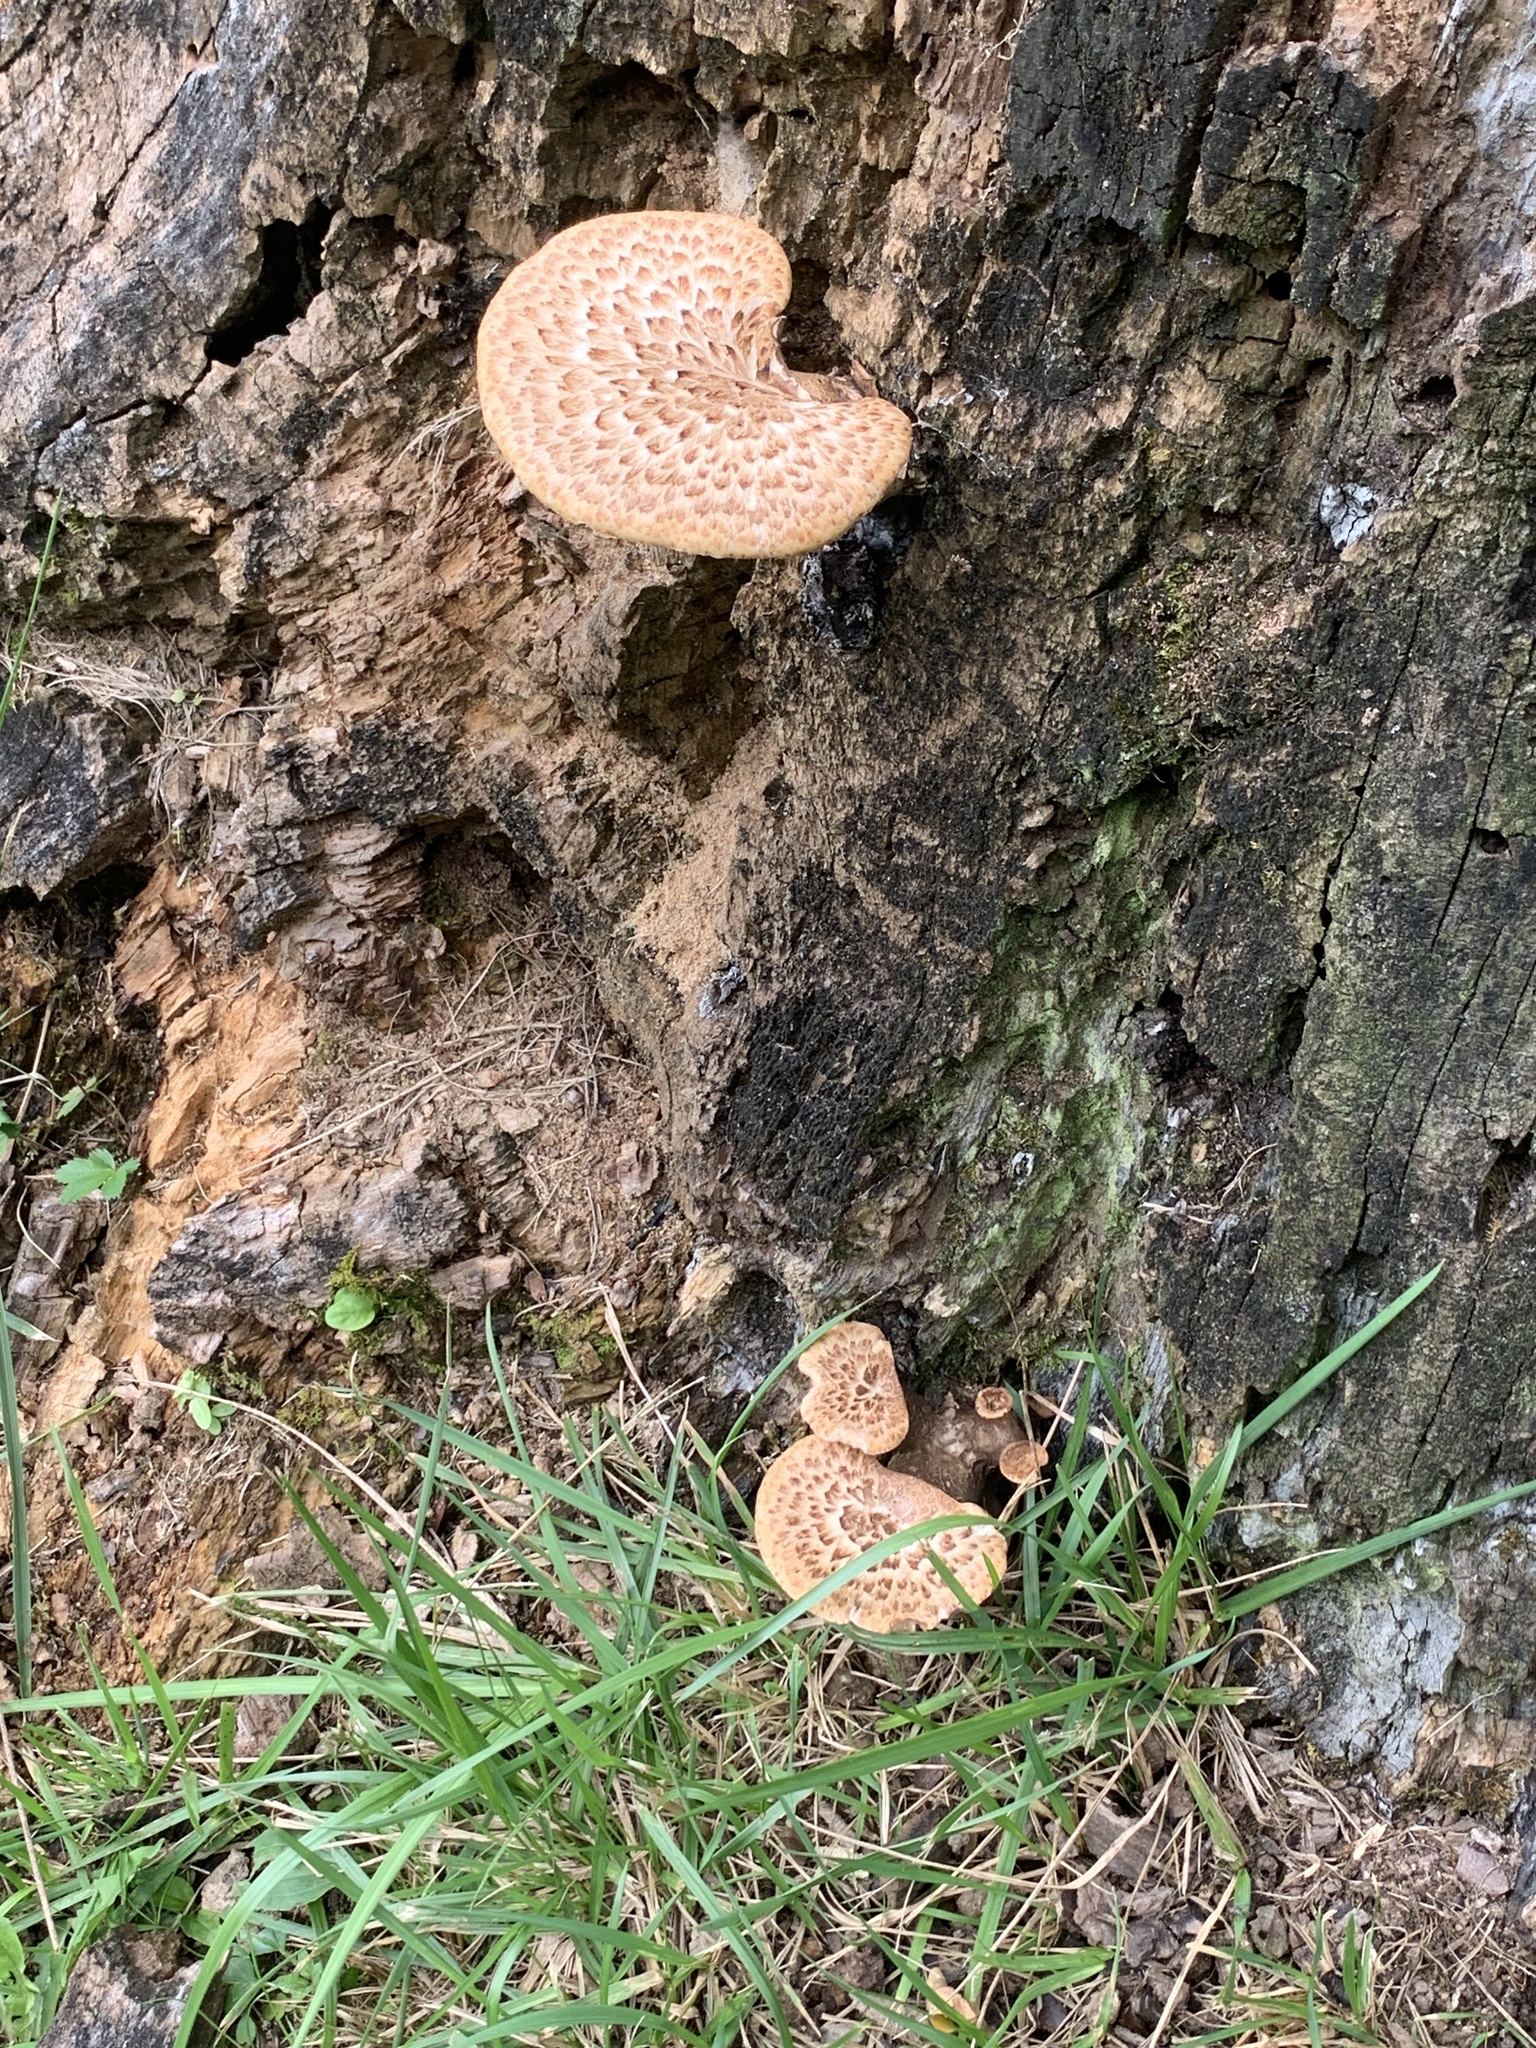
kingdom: Fungi
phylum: Basidiomycota
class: Agaricomycetes
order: Polyporales
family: Polyporaceae
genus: Cerioporus
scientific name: Cerioporus squamosus
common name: Dryad's saddle
